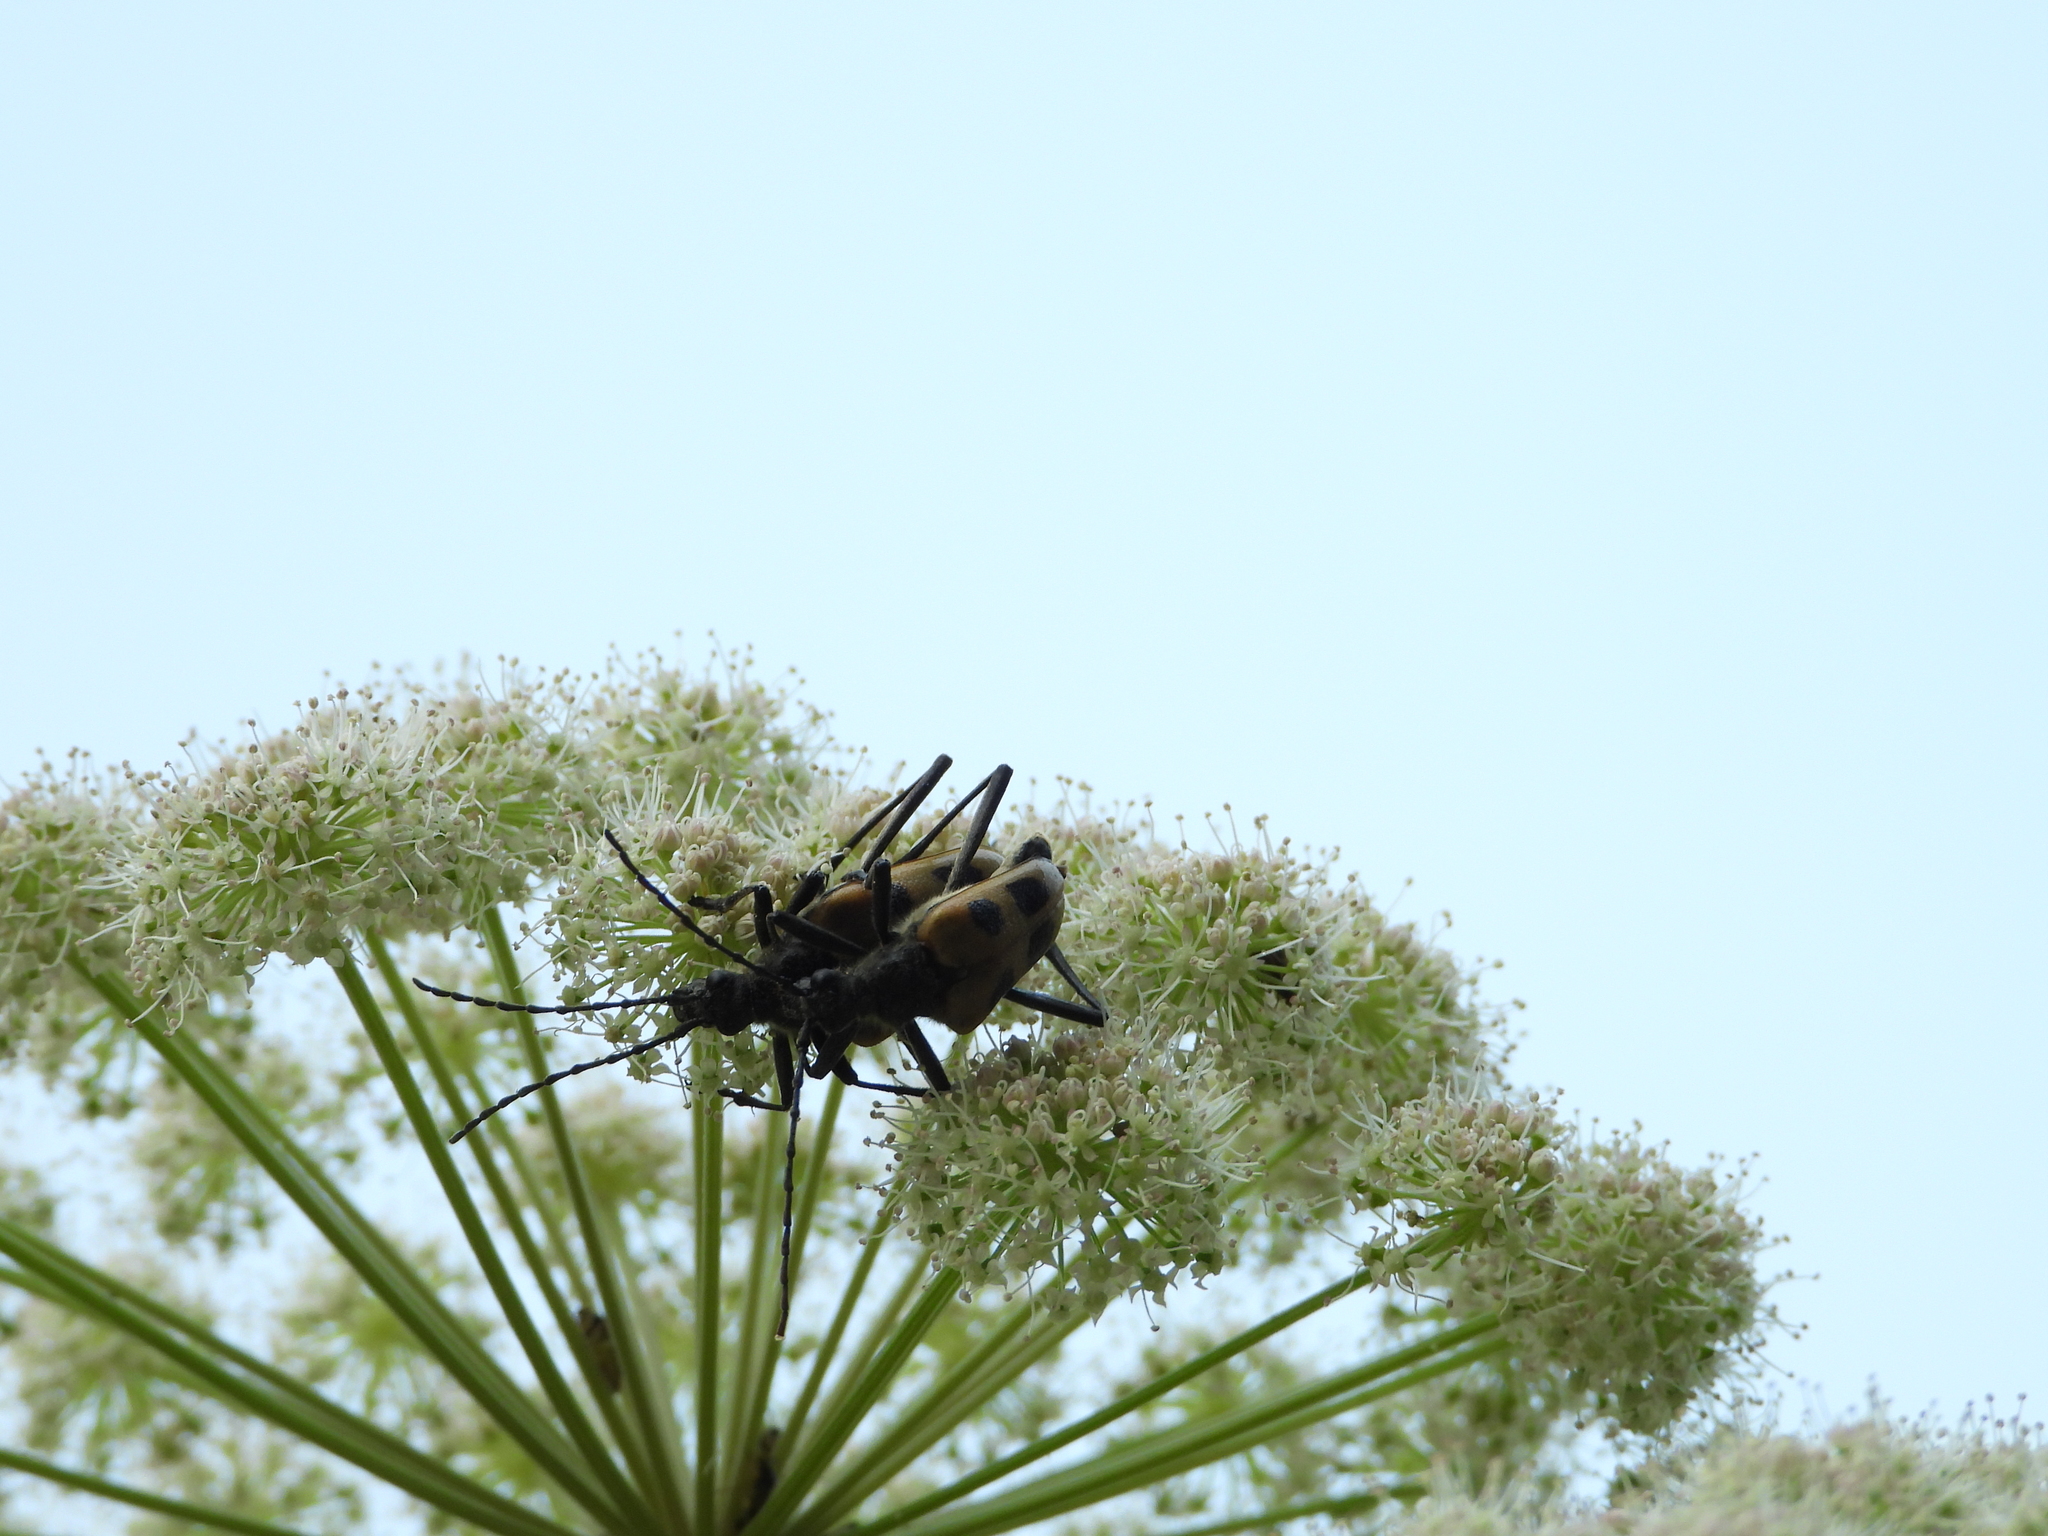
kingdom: Animalia
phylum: Arthropoda
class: Insecta
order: Coleoptera
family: Cerambycidae
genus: Pachyta
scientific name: Pachyta quadrimaculata
